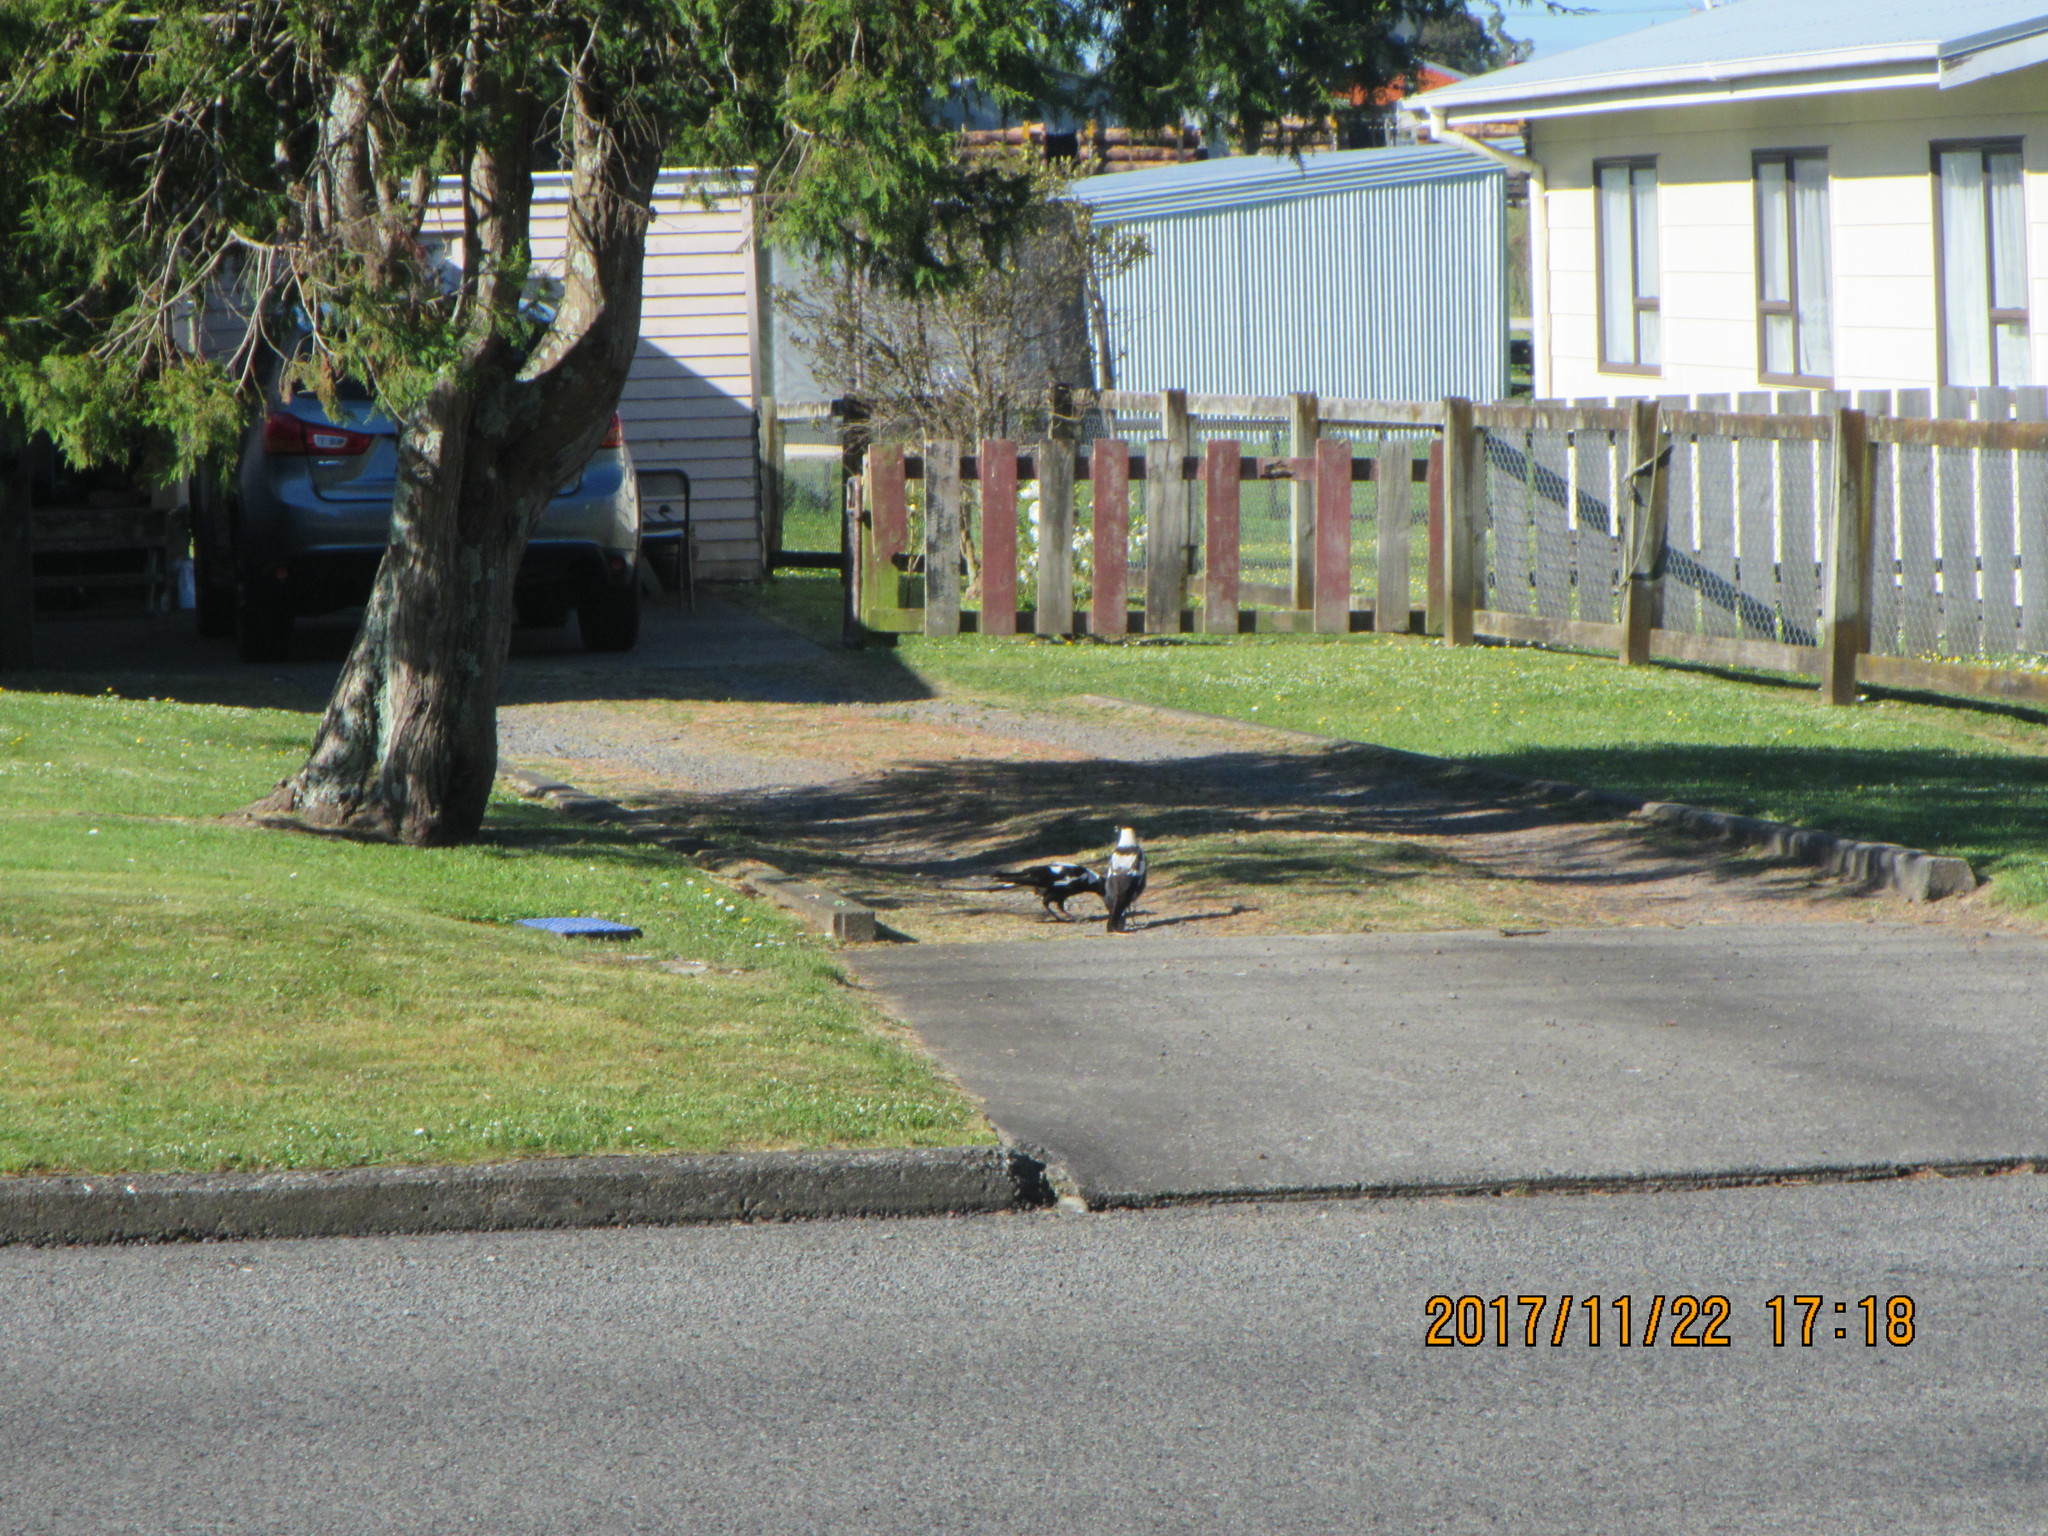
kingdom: Animalia
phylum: Chordata
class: Aves
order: Passeriformes
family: Cracticidae
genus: Gymnorhina
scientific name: Gymnorhina tibicen
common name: Australian magpie
